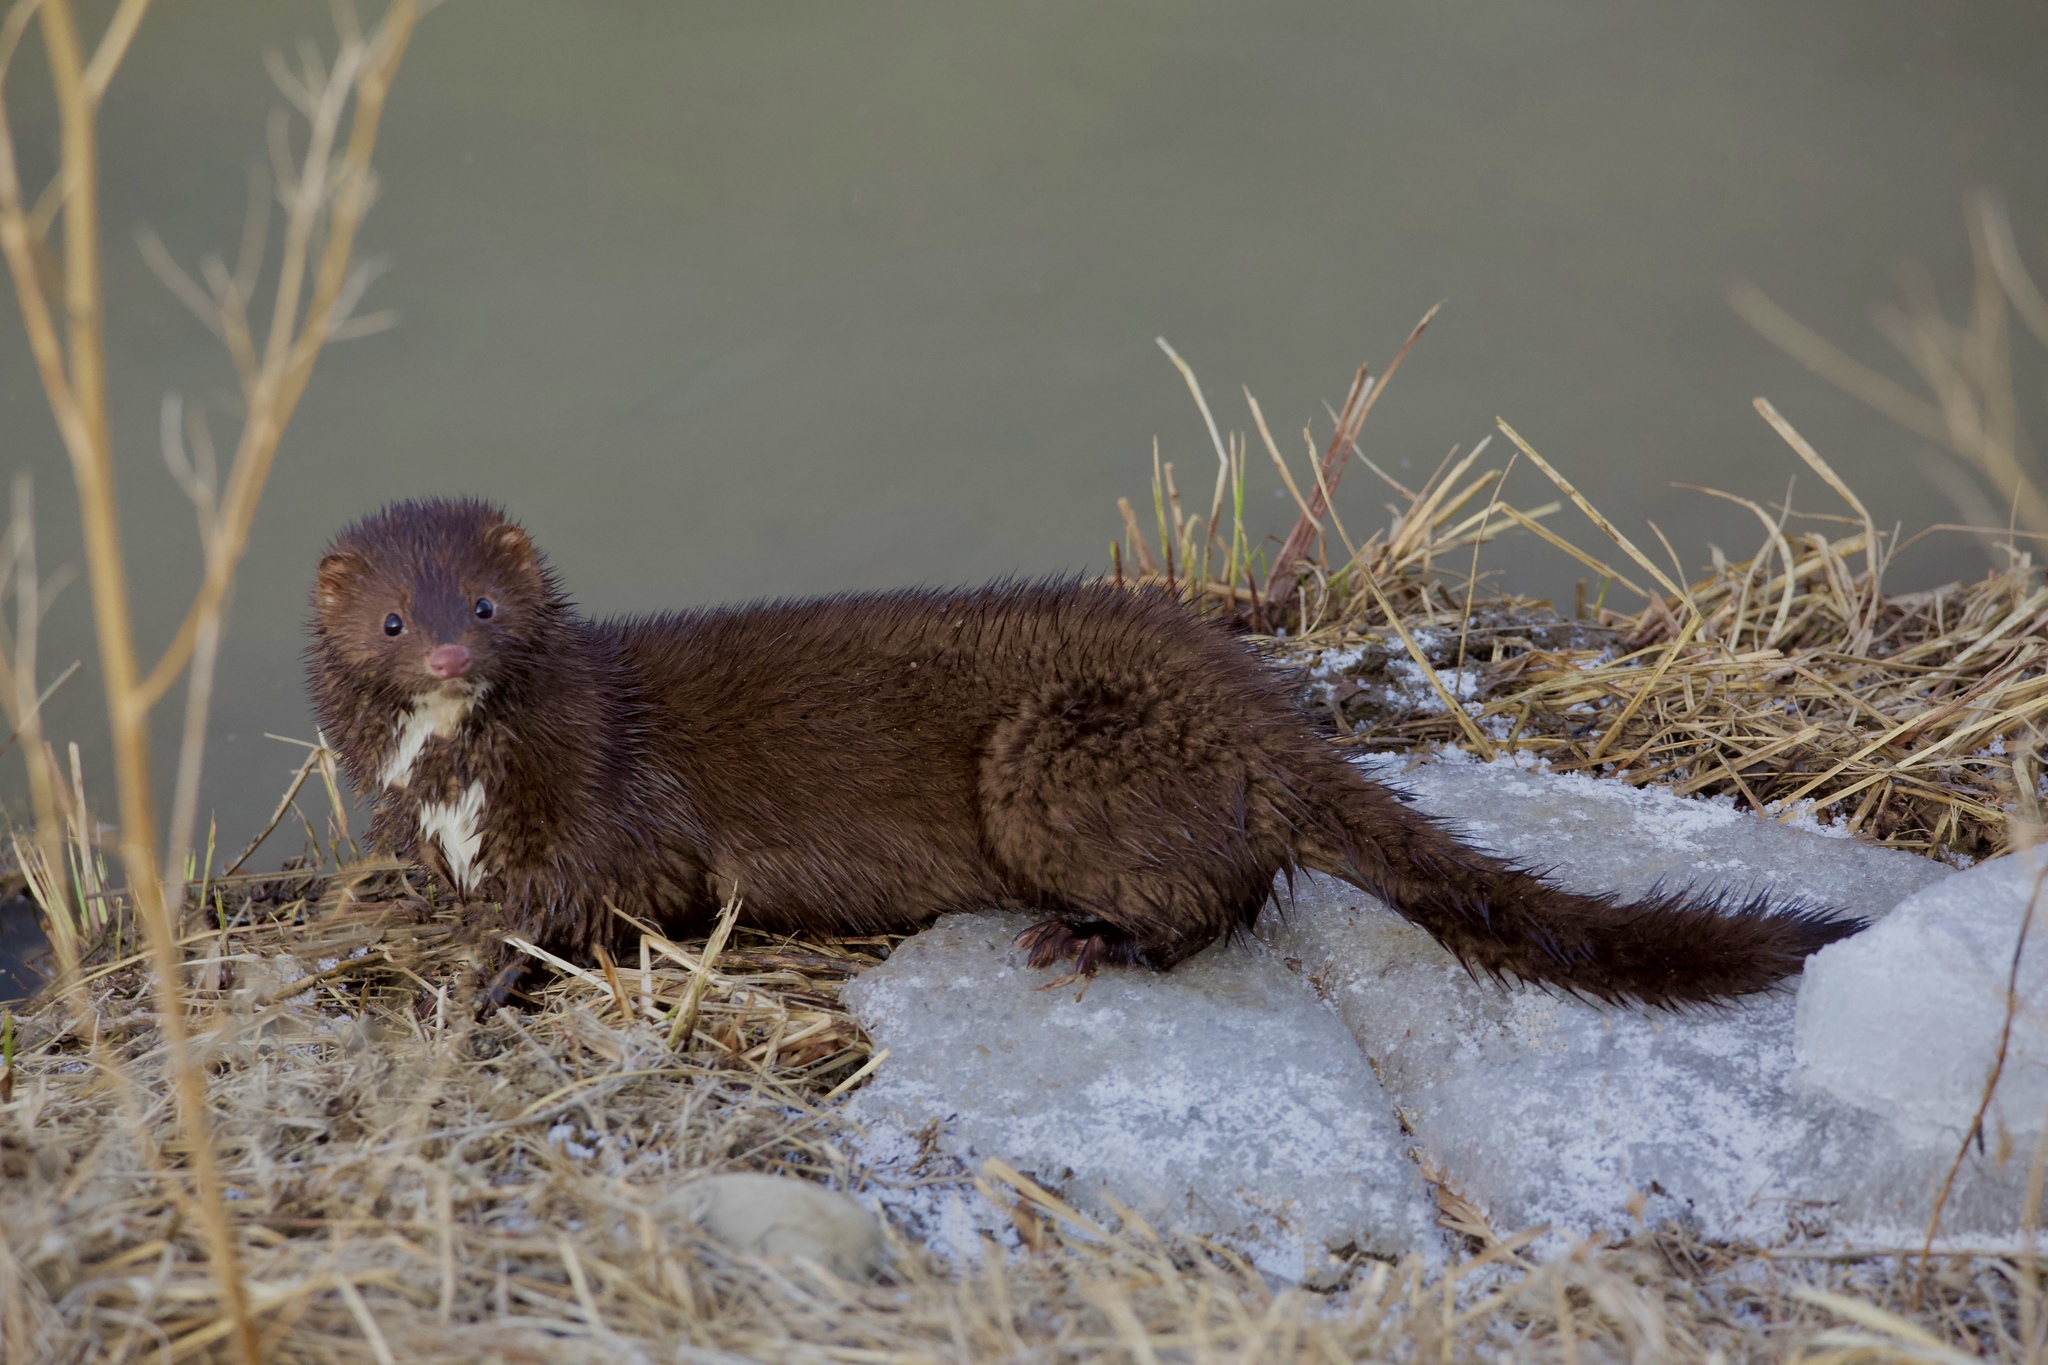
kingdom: Animalia
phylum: Chordata
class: Mammalia
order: Carnivora
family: Mustelidae
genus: Mustela
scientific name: Mustela
